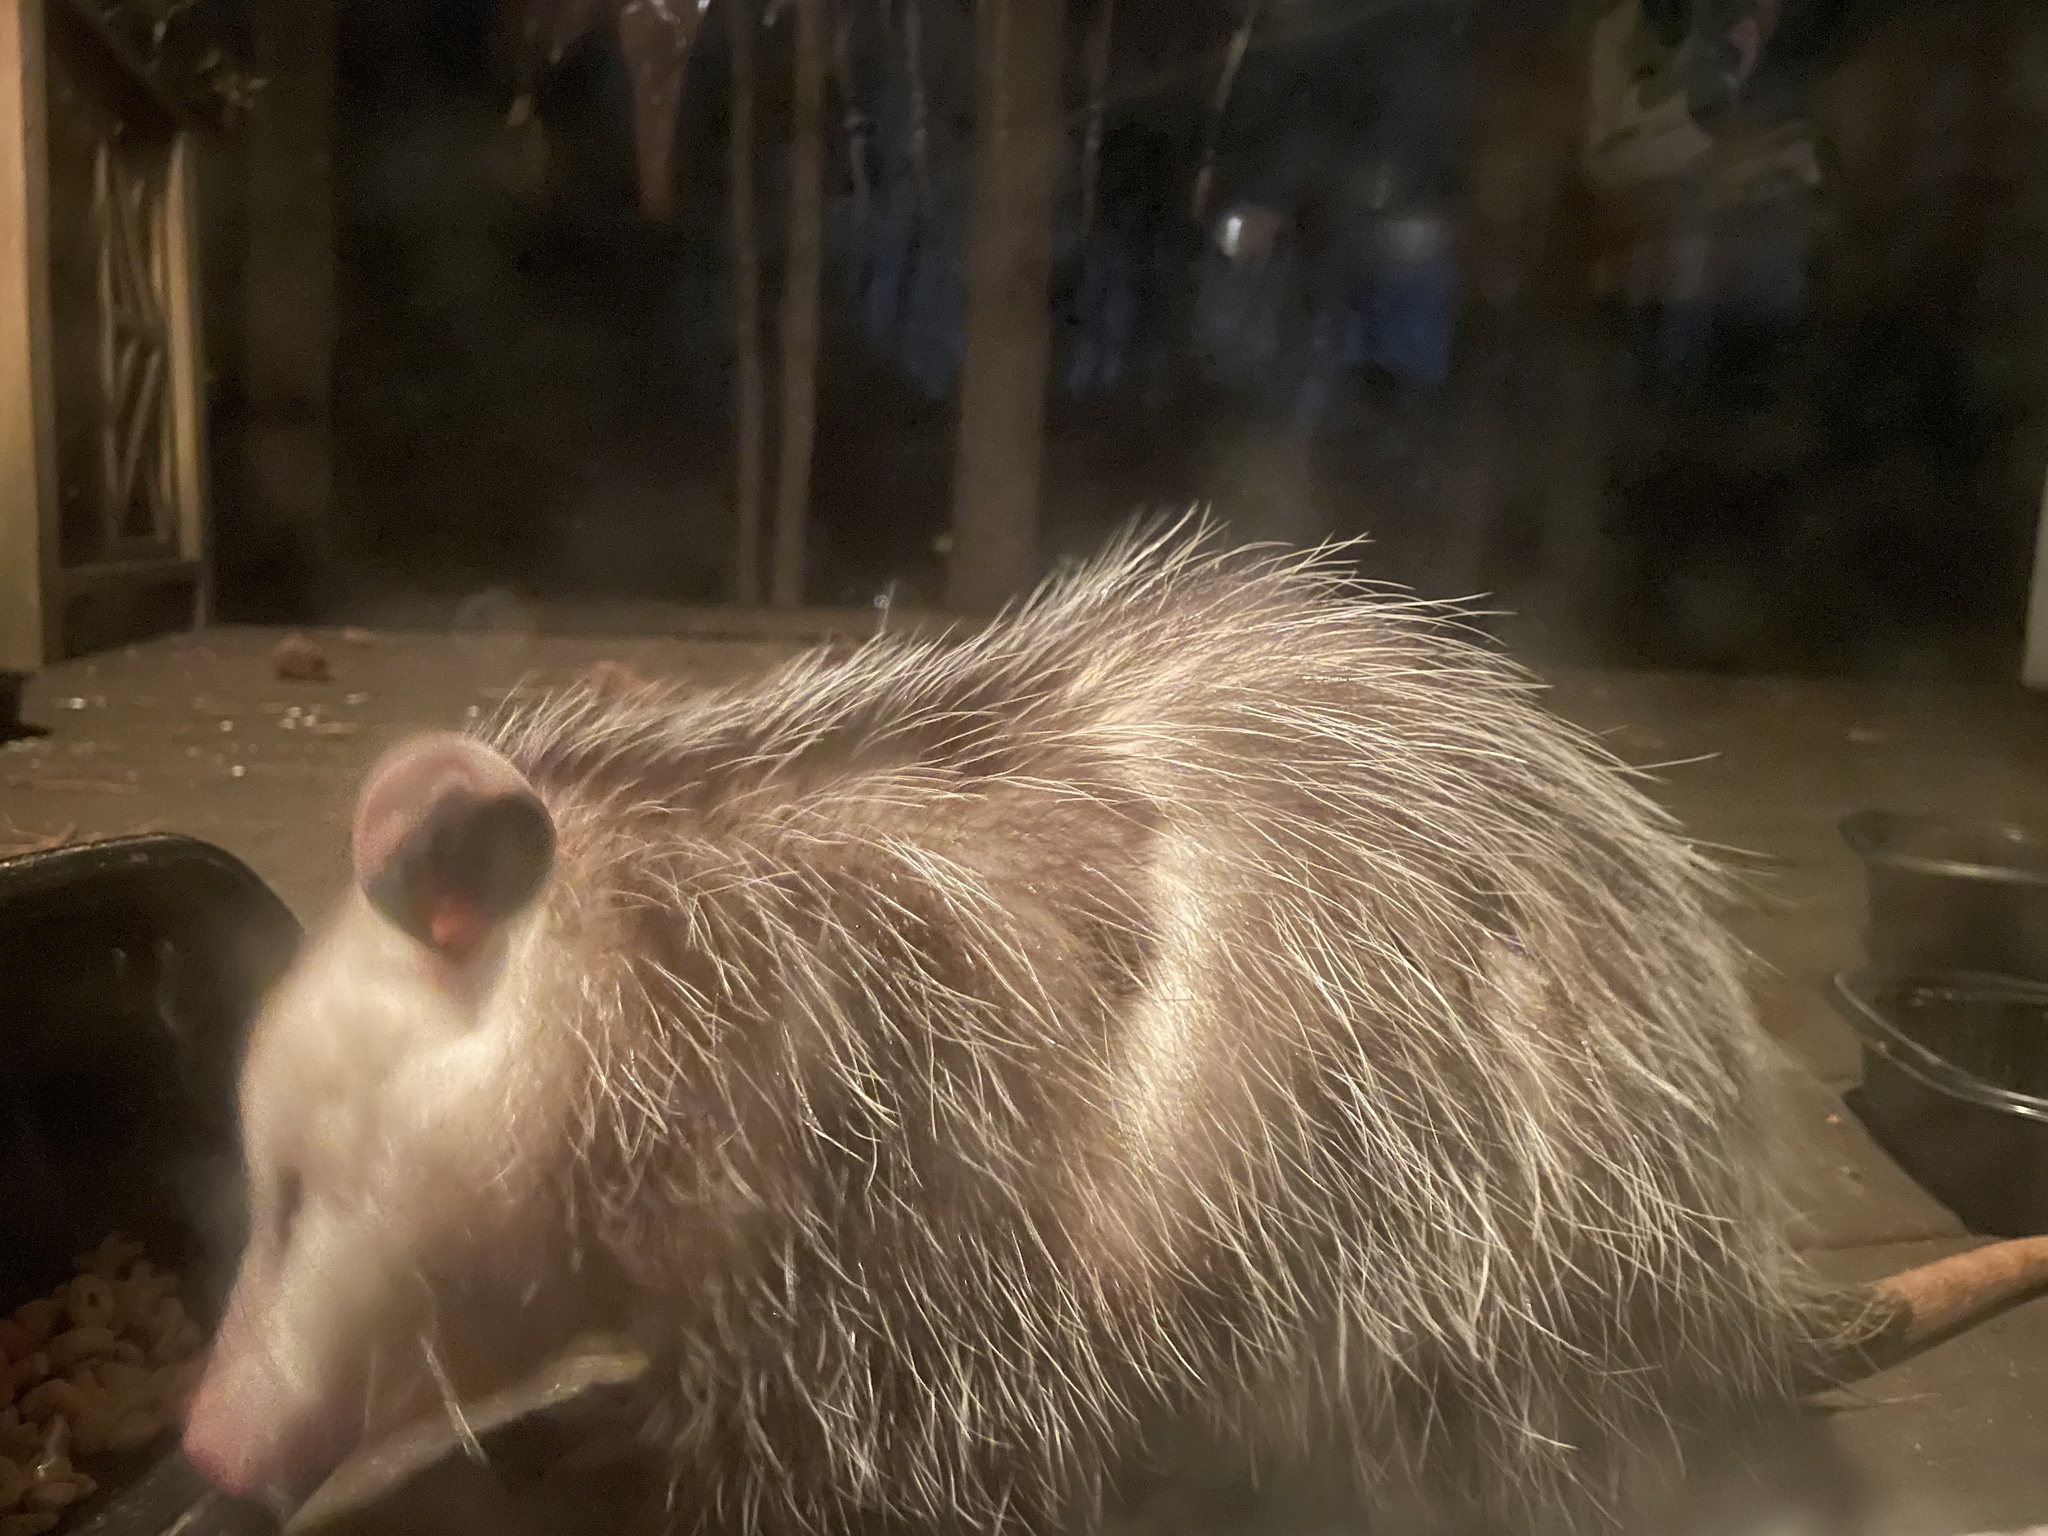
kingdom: Animalia
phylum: Chordata
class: Mammalia
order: Didelphimorphia
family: Didelphidae
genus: Didelphis
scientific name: Didelphis virginiana
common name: Virginia opossum
